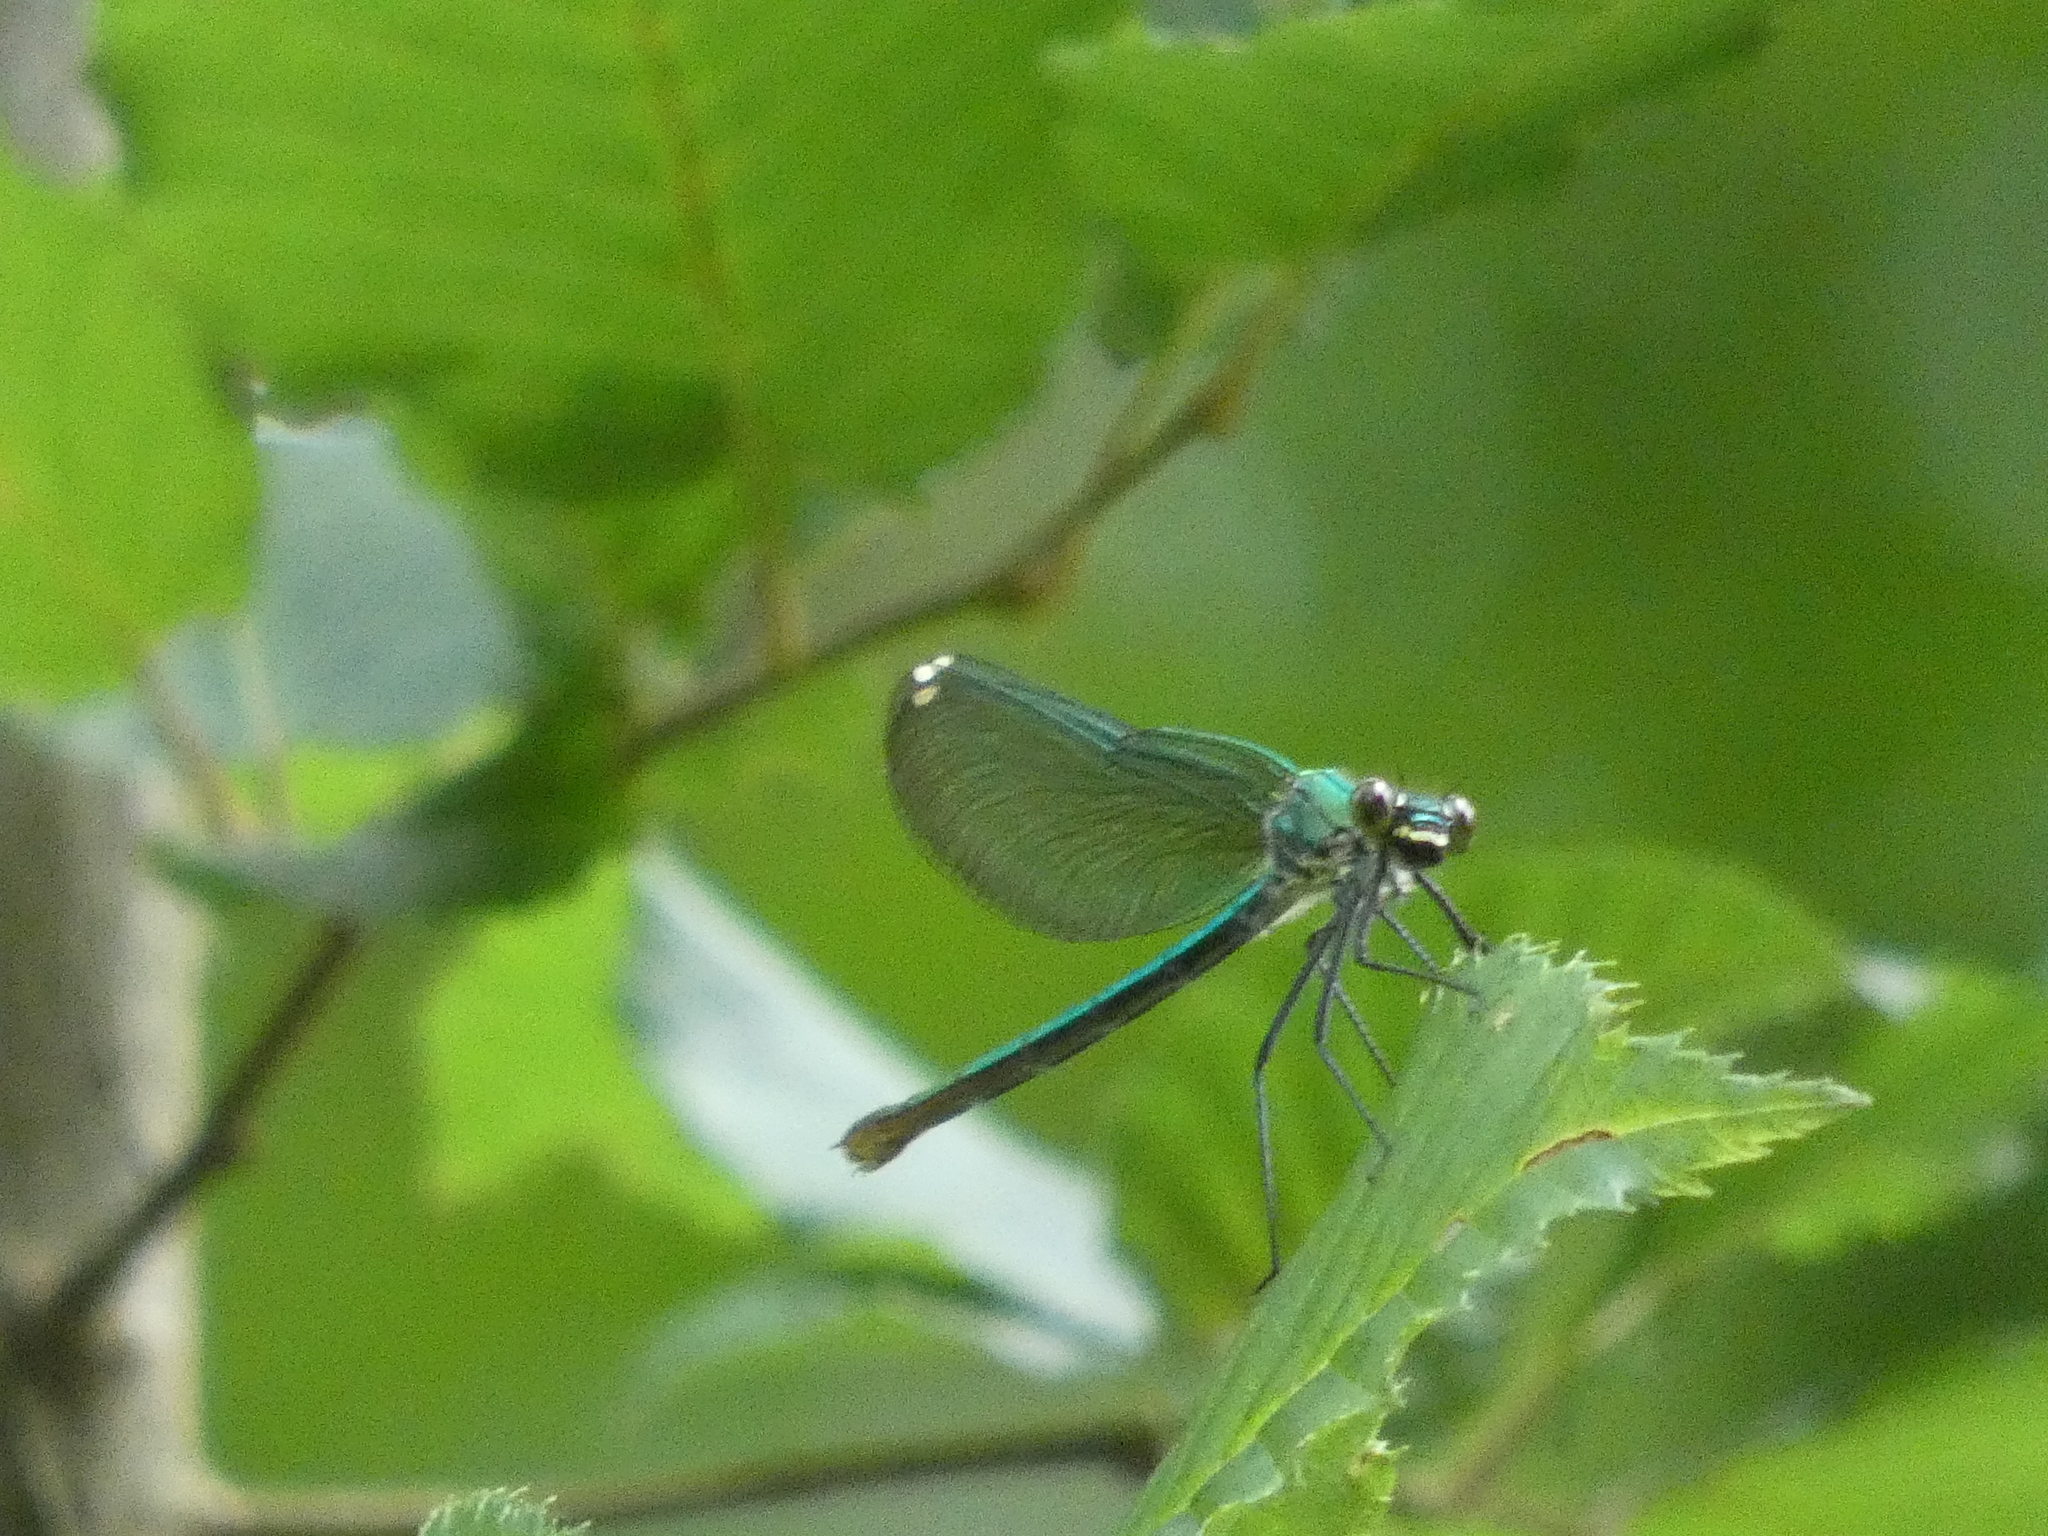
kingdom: Animalia
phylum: Arthropoda
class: Insecta
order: Odonata
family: Calopterygidae
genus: Calopteryx
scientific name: Calopteryx splendens
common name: Banded demoiselle
